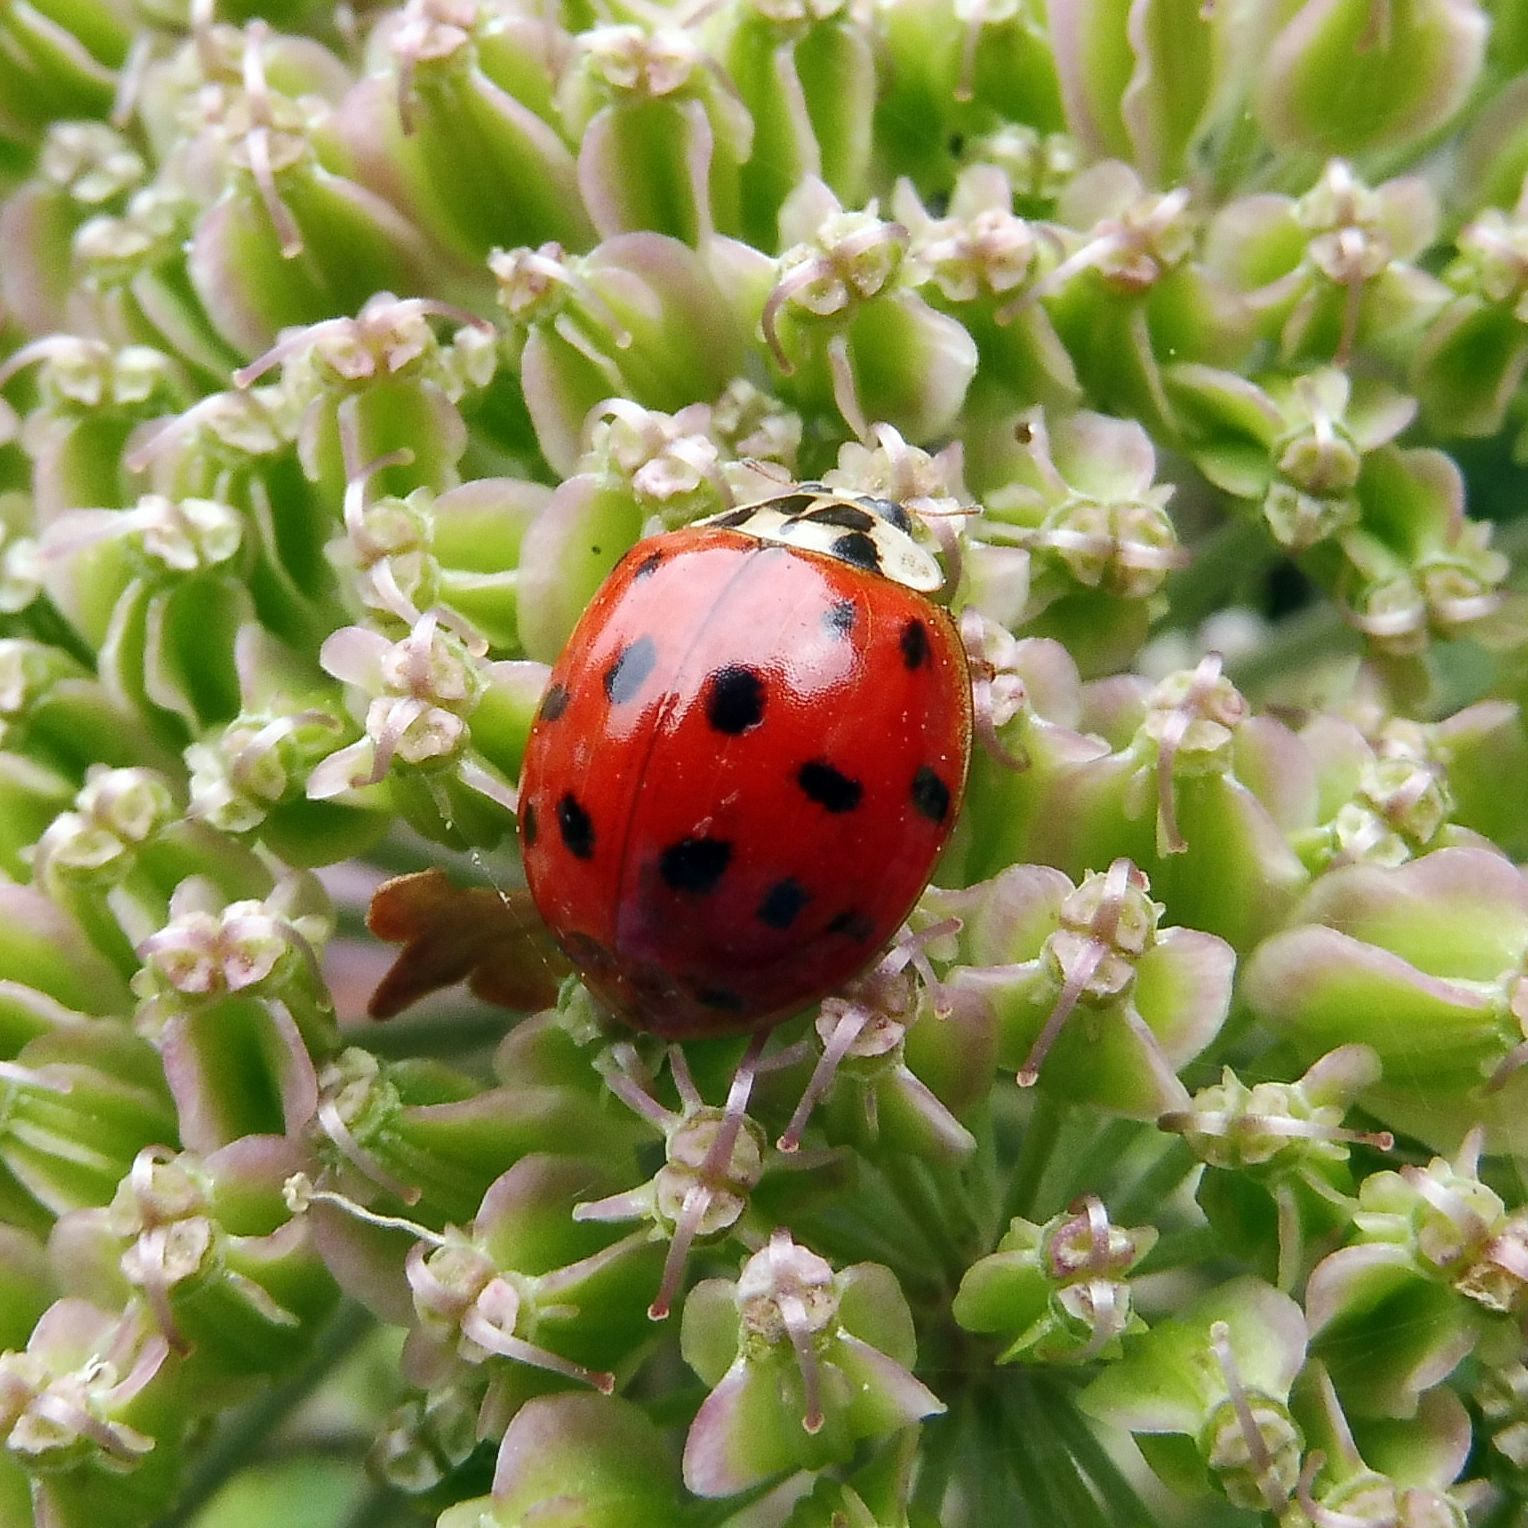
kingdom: Animalia
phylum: Arthropoda
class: Insecta
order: Coleoptera
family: Coccinellidae
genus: Harmonia
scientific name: Harmonia axyridis
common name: Harlequin ladybird
